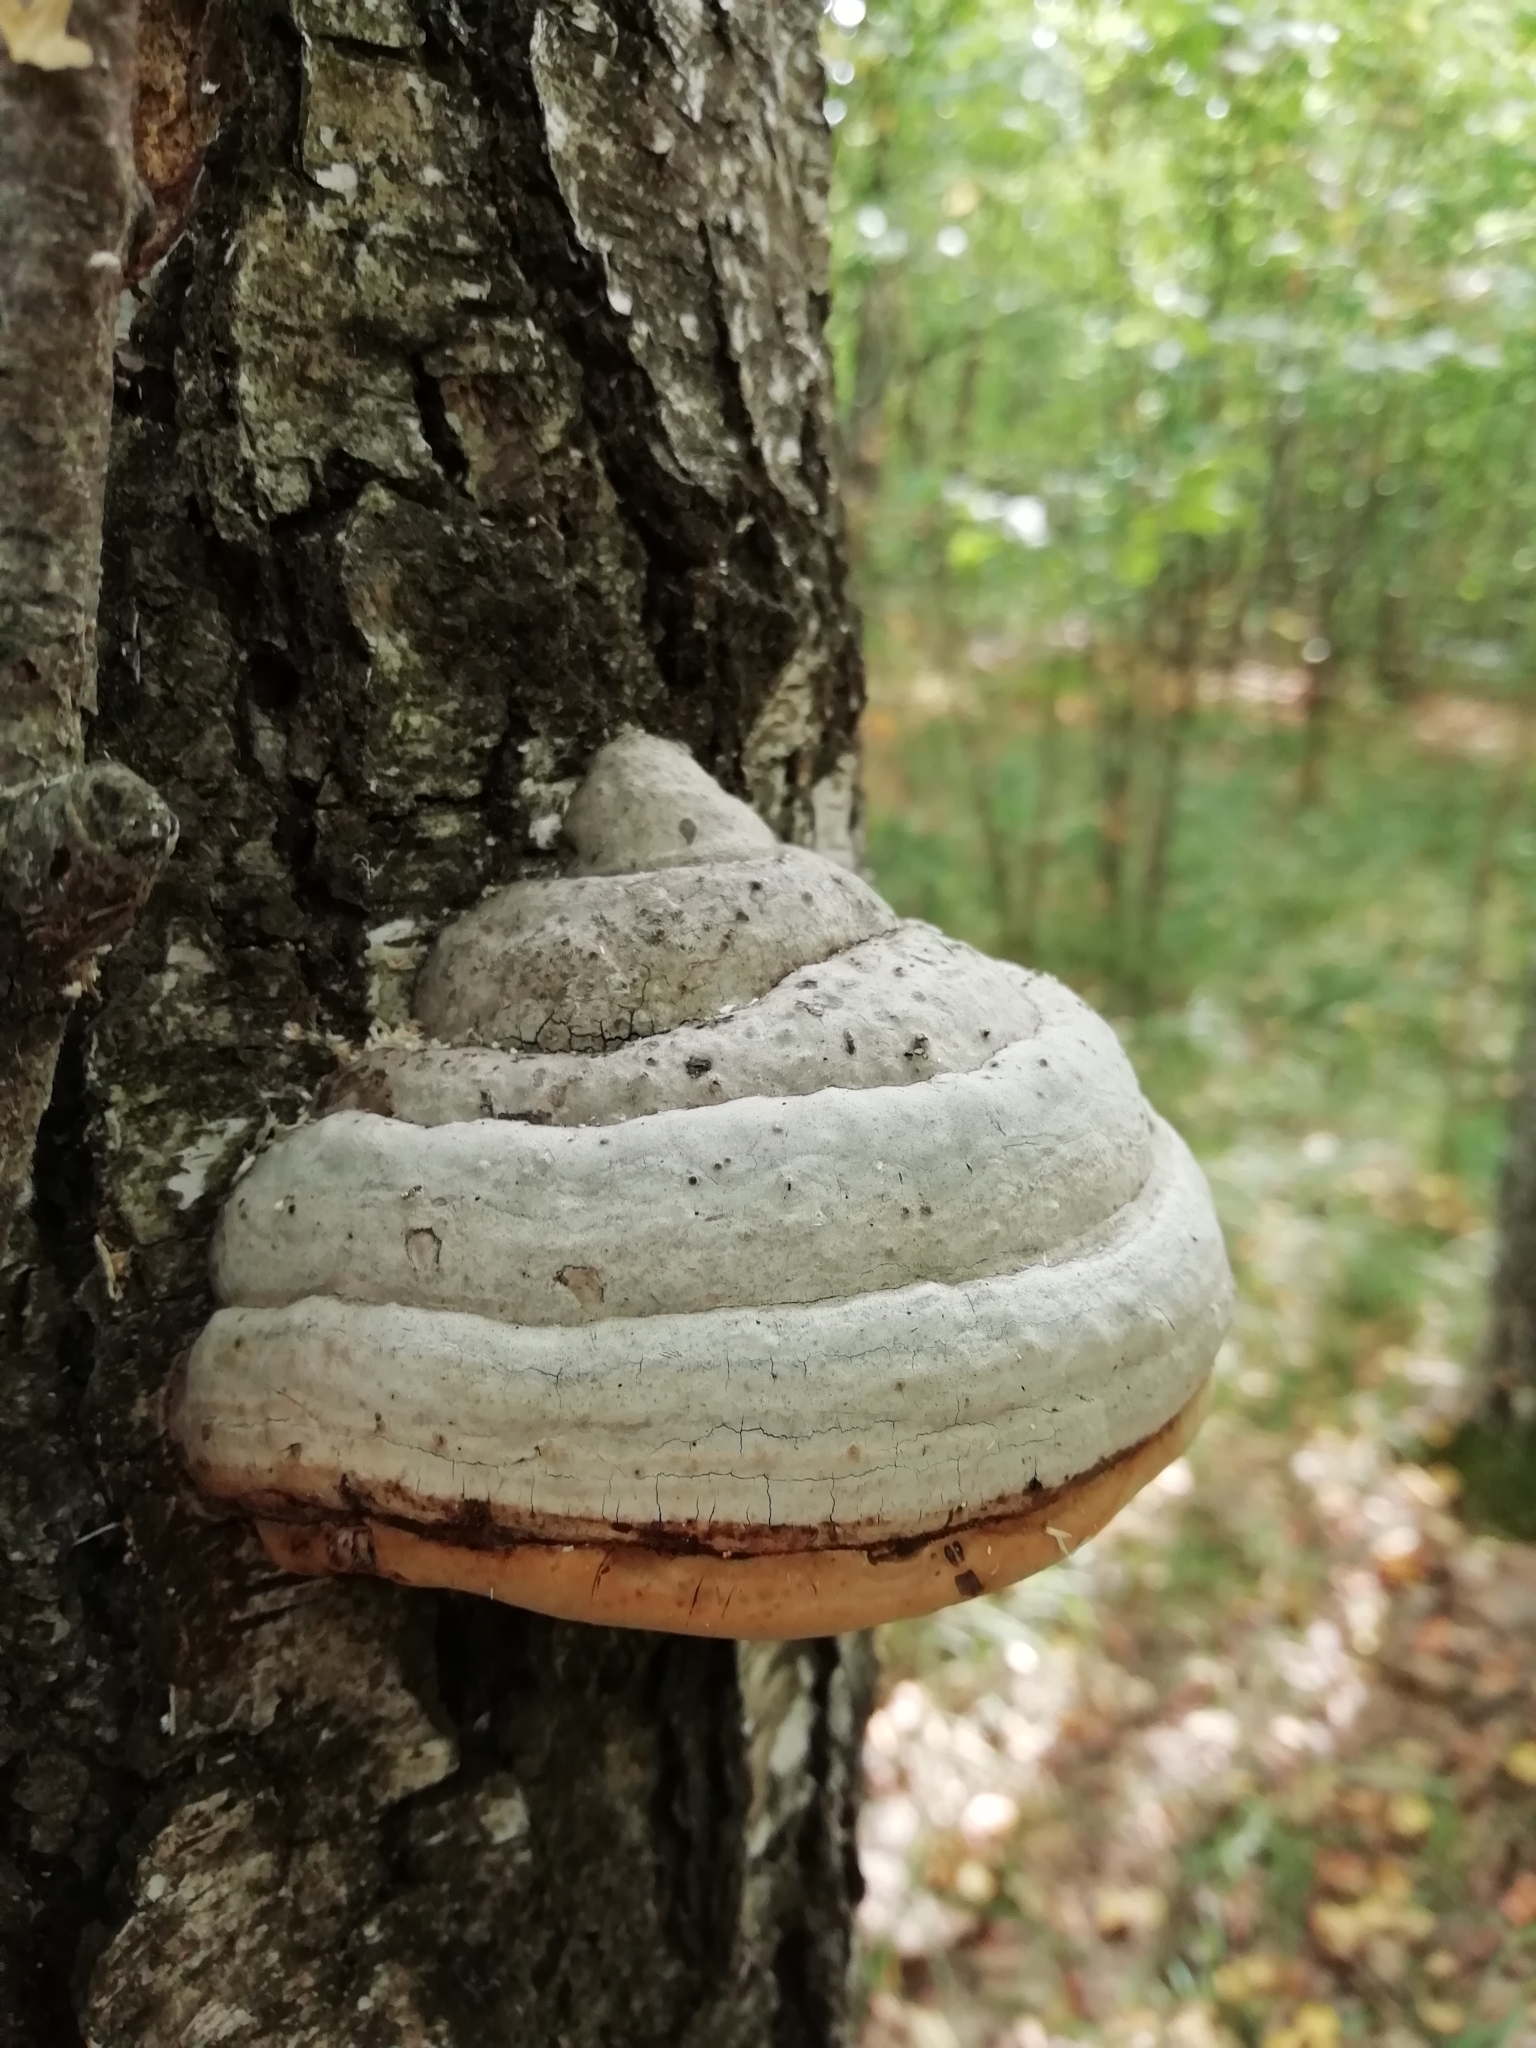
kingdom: Fungi
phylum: Basidiomycota
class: Agaricomycetes
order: Polyporales
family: Polyporaceae
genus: Fomes
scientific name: Fomes fomentarius
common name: Hoof fungus
